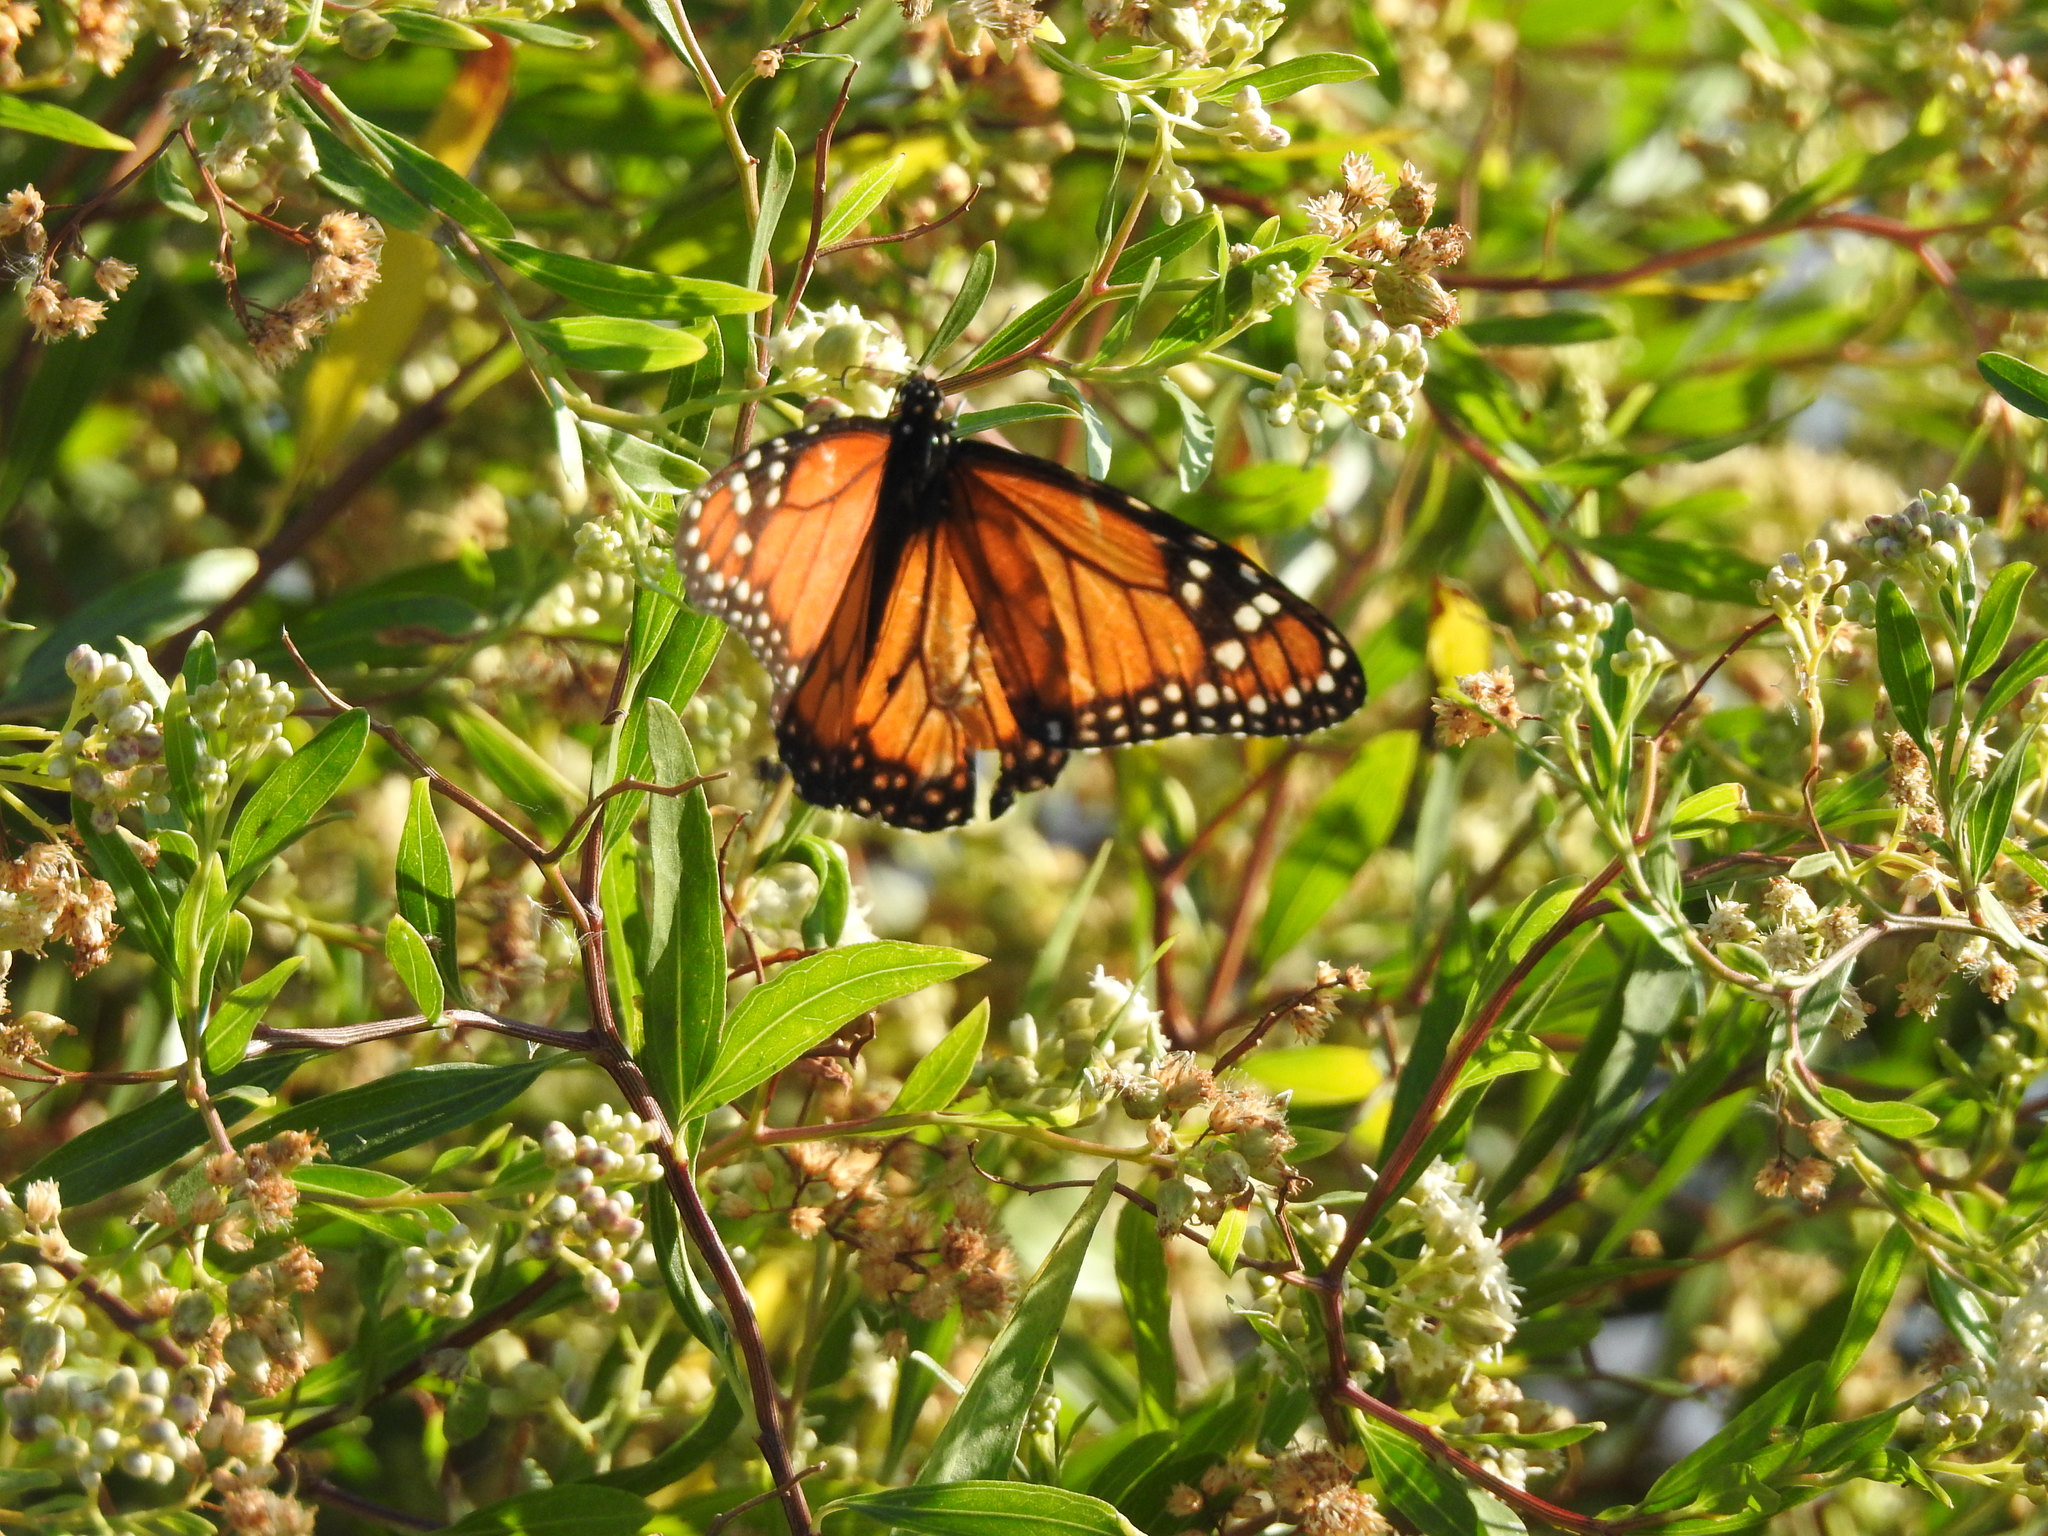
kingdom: Animalia
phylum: Arthropoda
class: Insecta
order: Lepidoptera
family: Nymphalidae
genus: Danaus
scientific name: Danaus erippus
